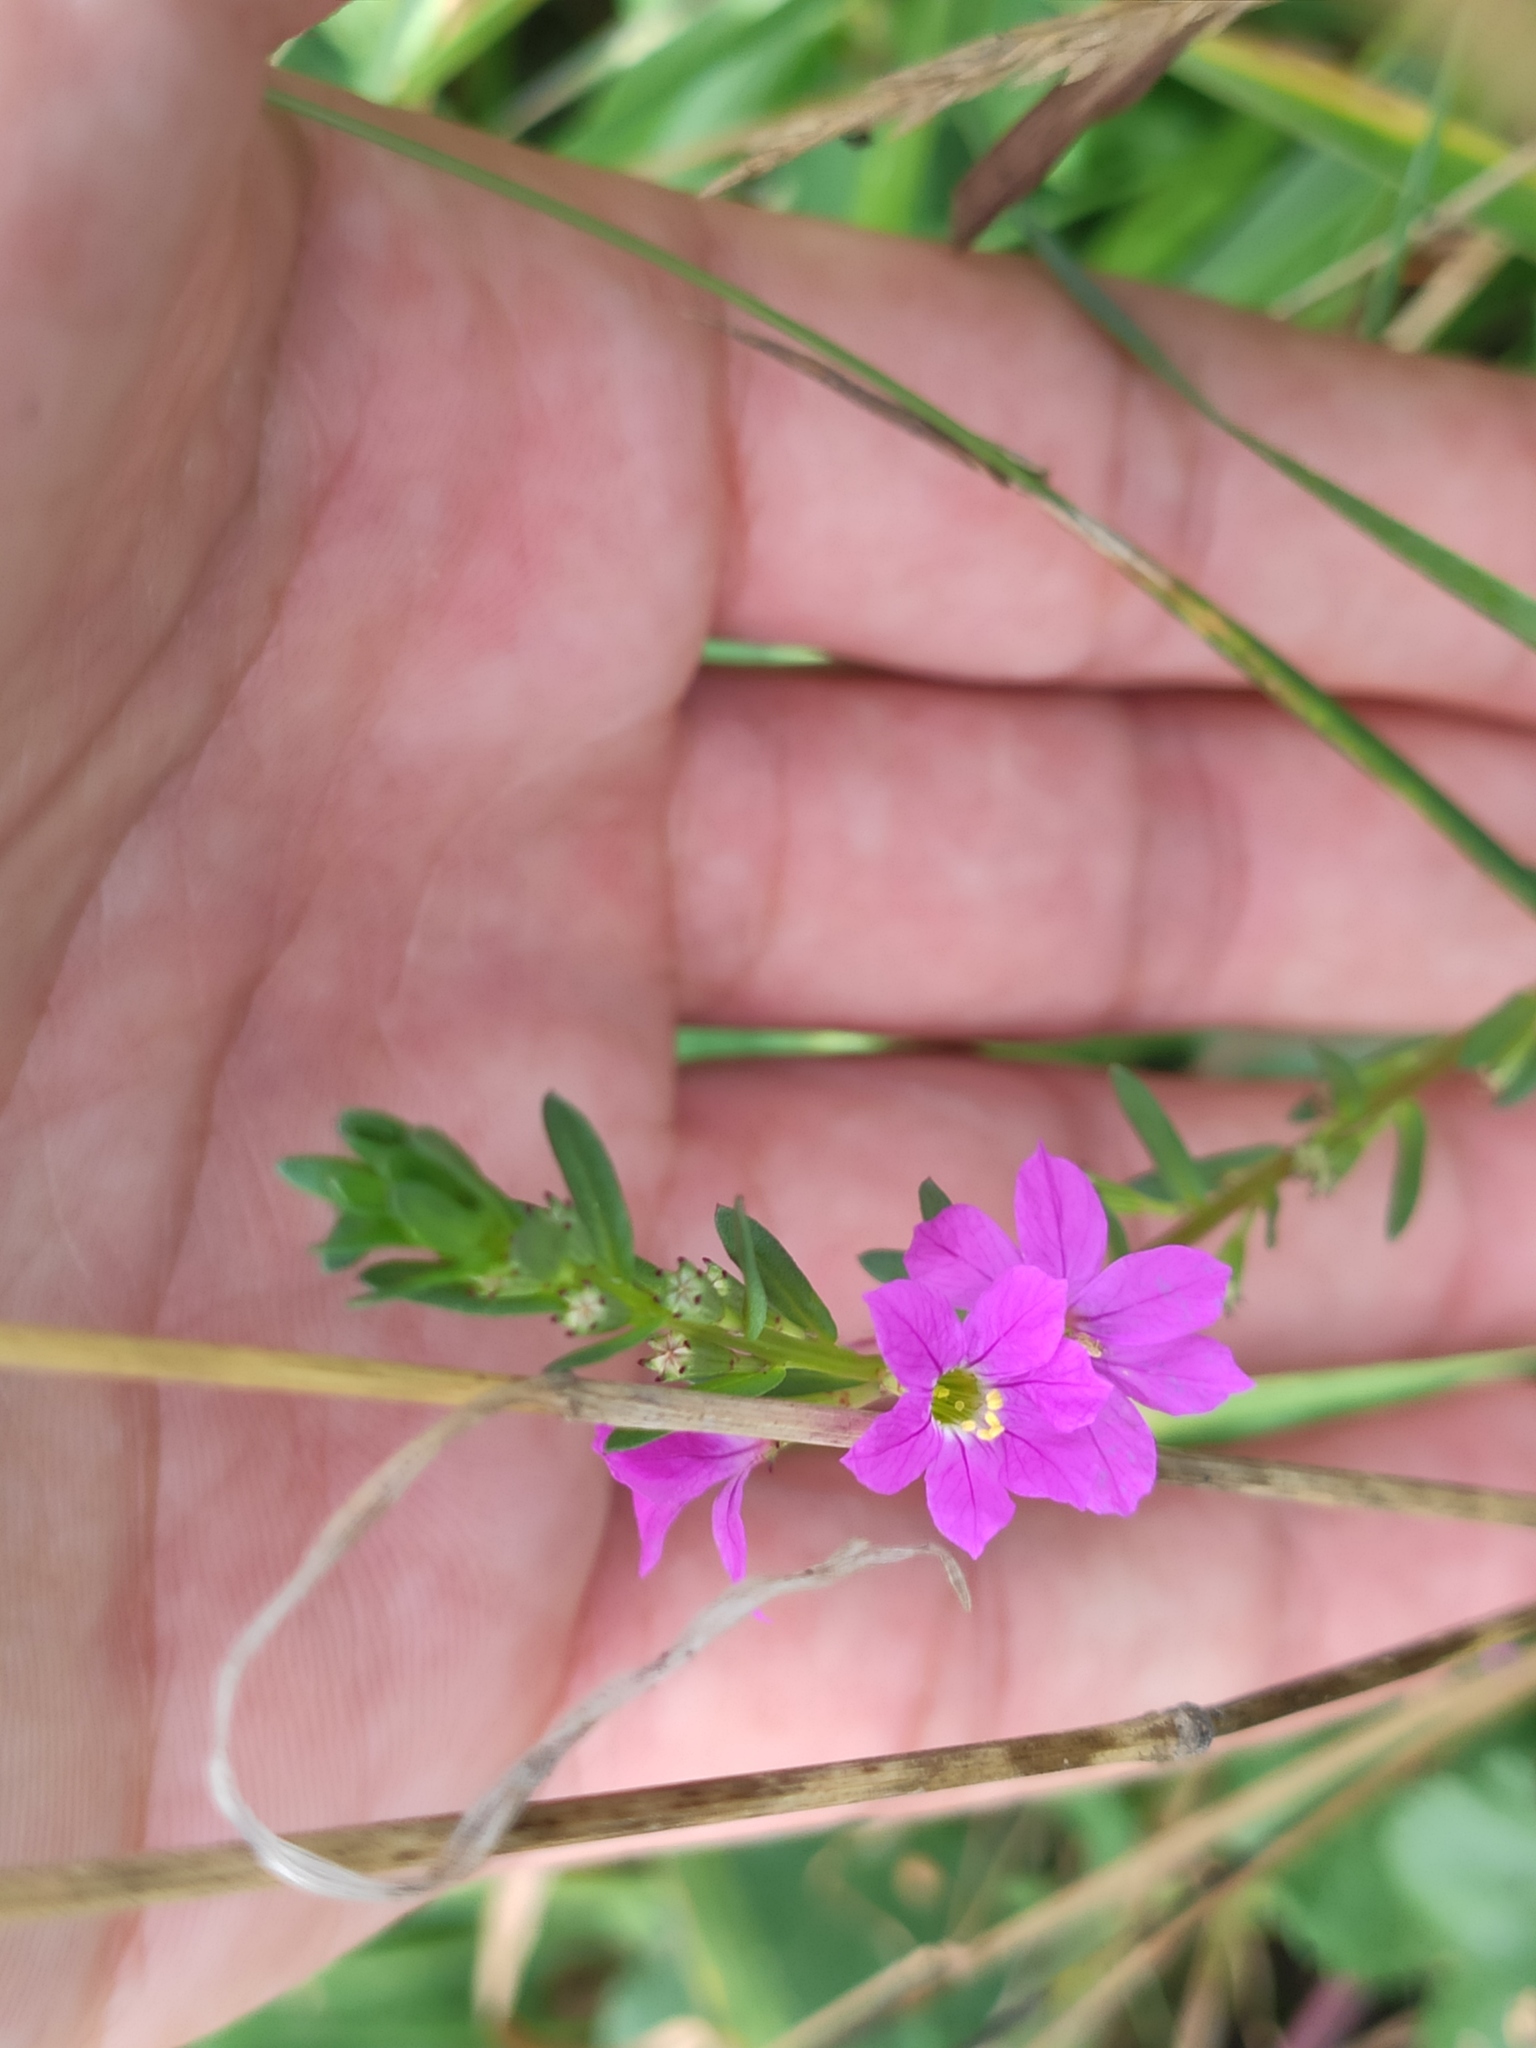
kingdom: Plantae
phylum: Tracheophyta
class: Magnoliopsida
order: Myrtales
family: Lythraceae
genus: Lythrum
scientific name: Lythrum junceum
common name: False grass-poly
